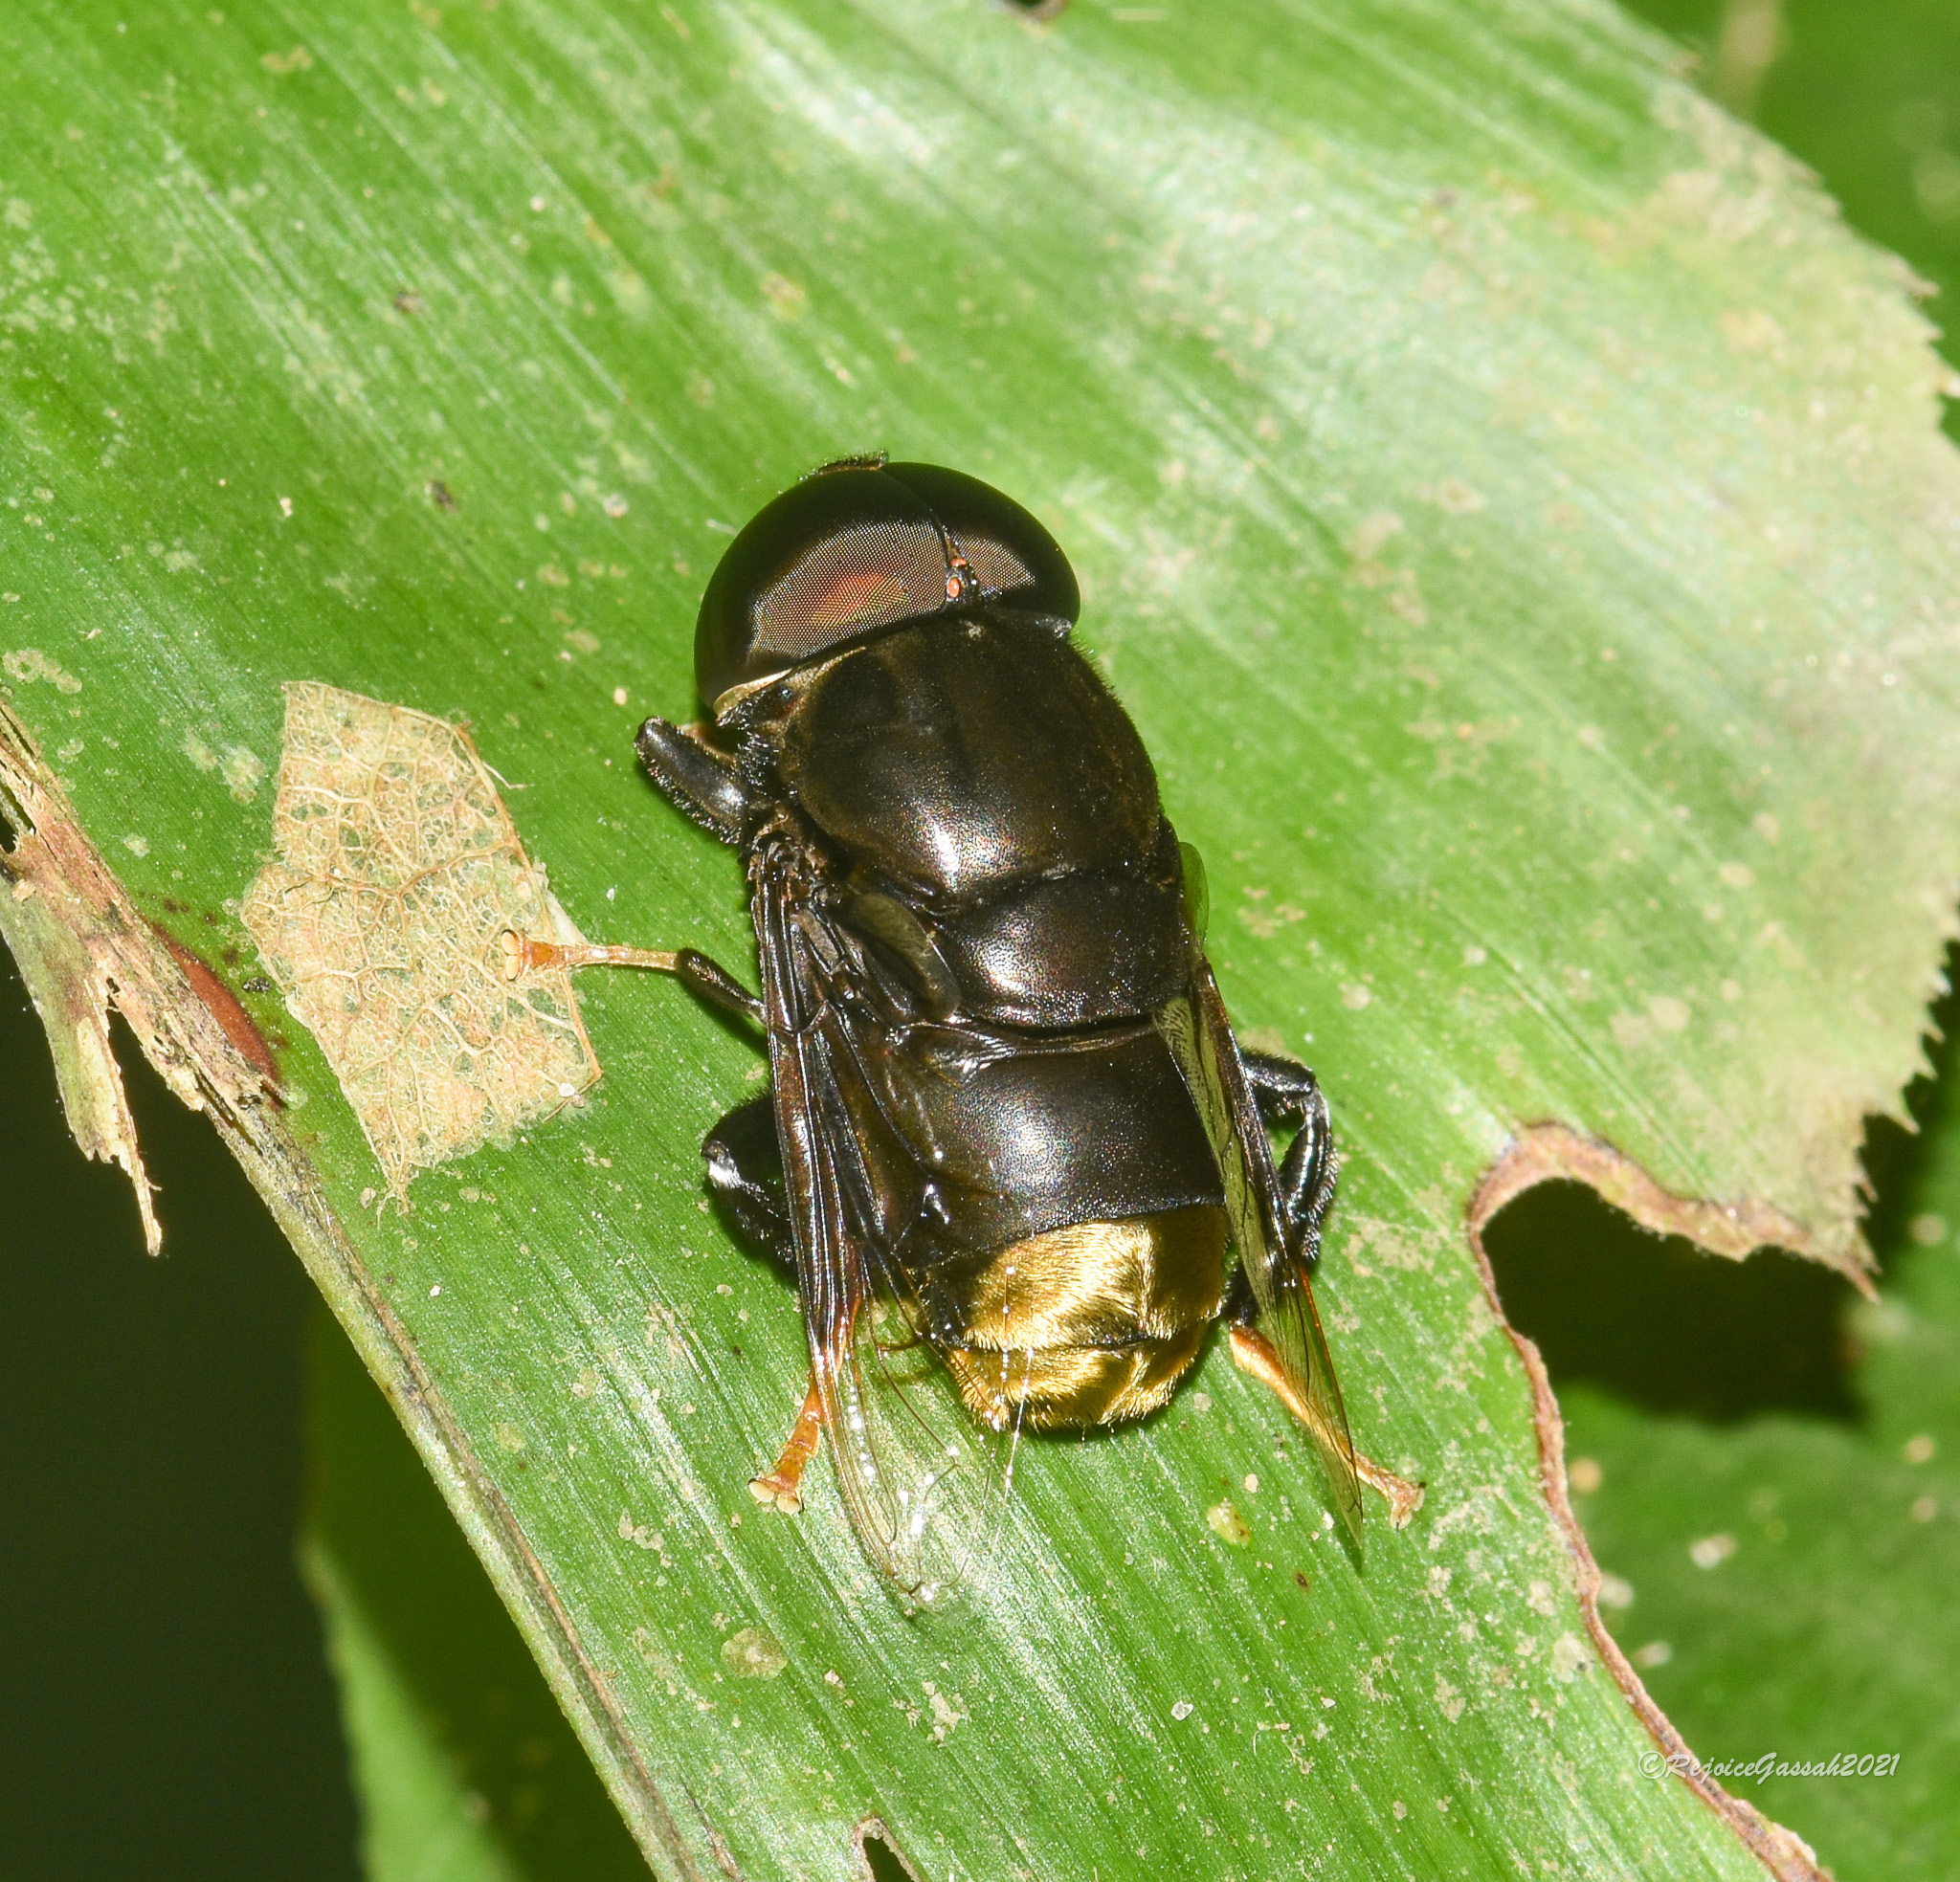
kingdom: Animalia
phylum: Arthropoda
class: Insecta
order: Diptera
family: Syrphidae
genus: Phytomia
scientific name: Phytomia chrysopyga
